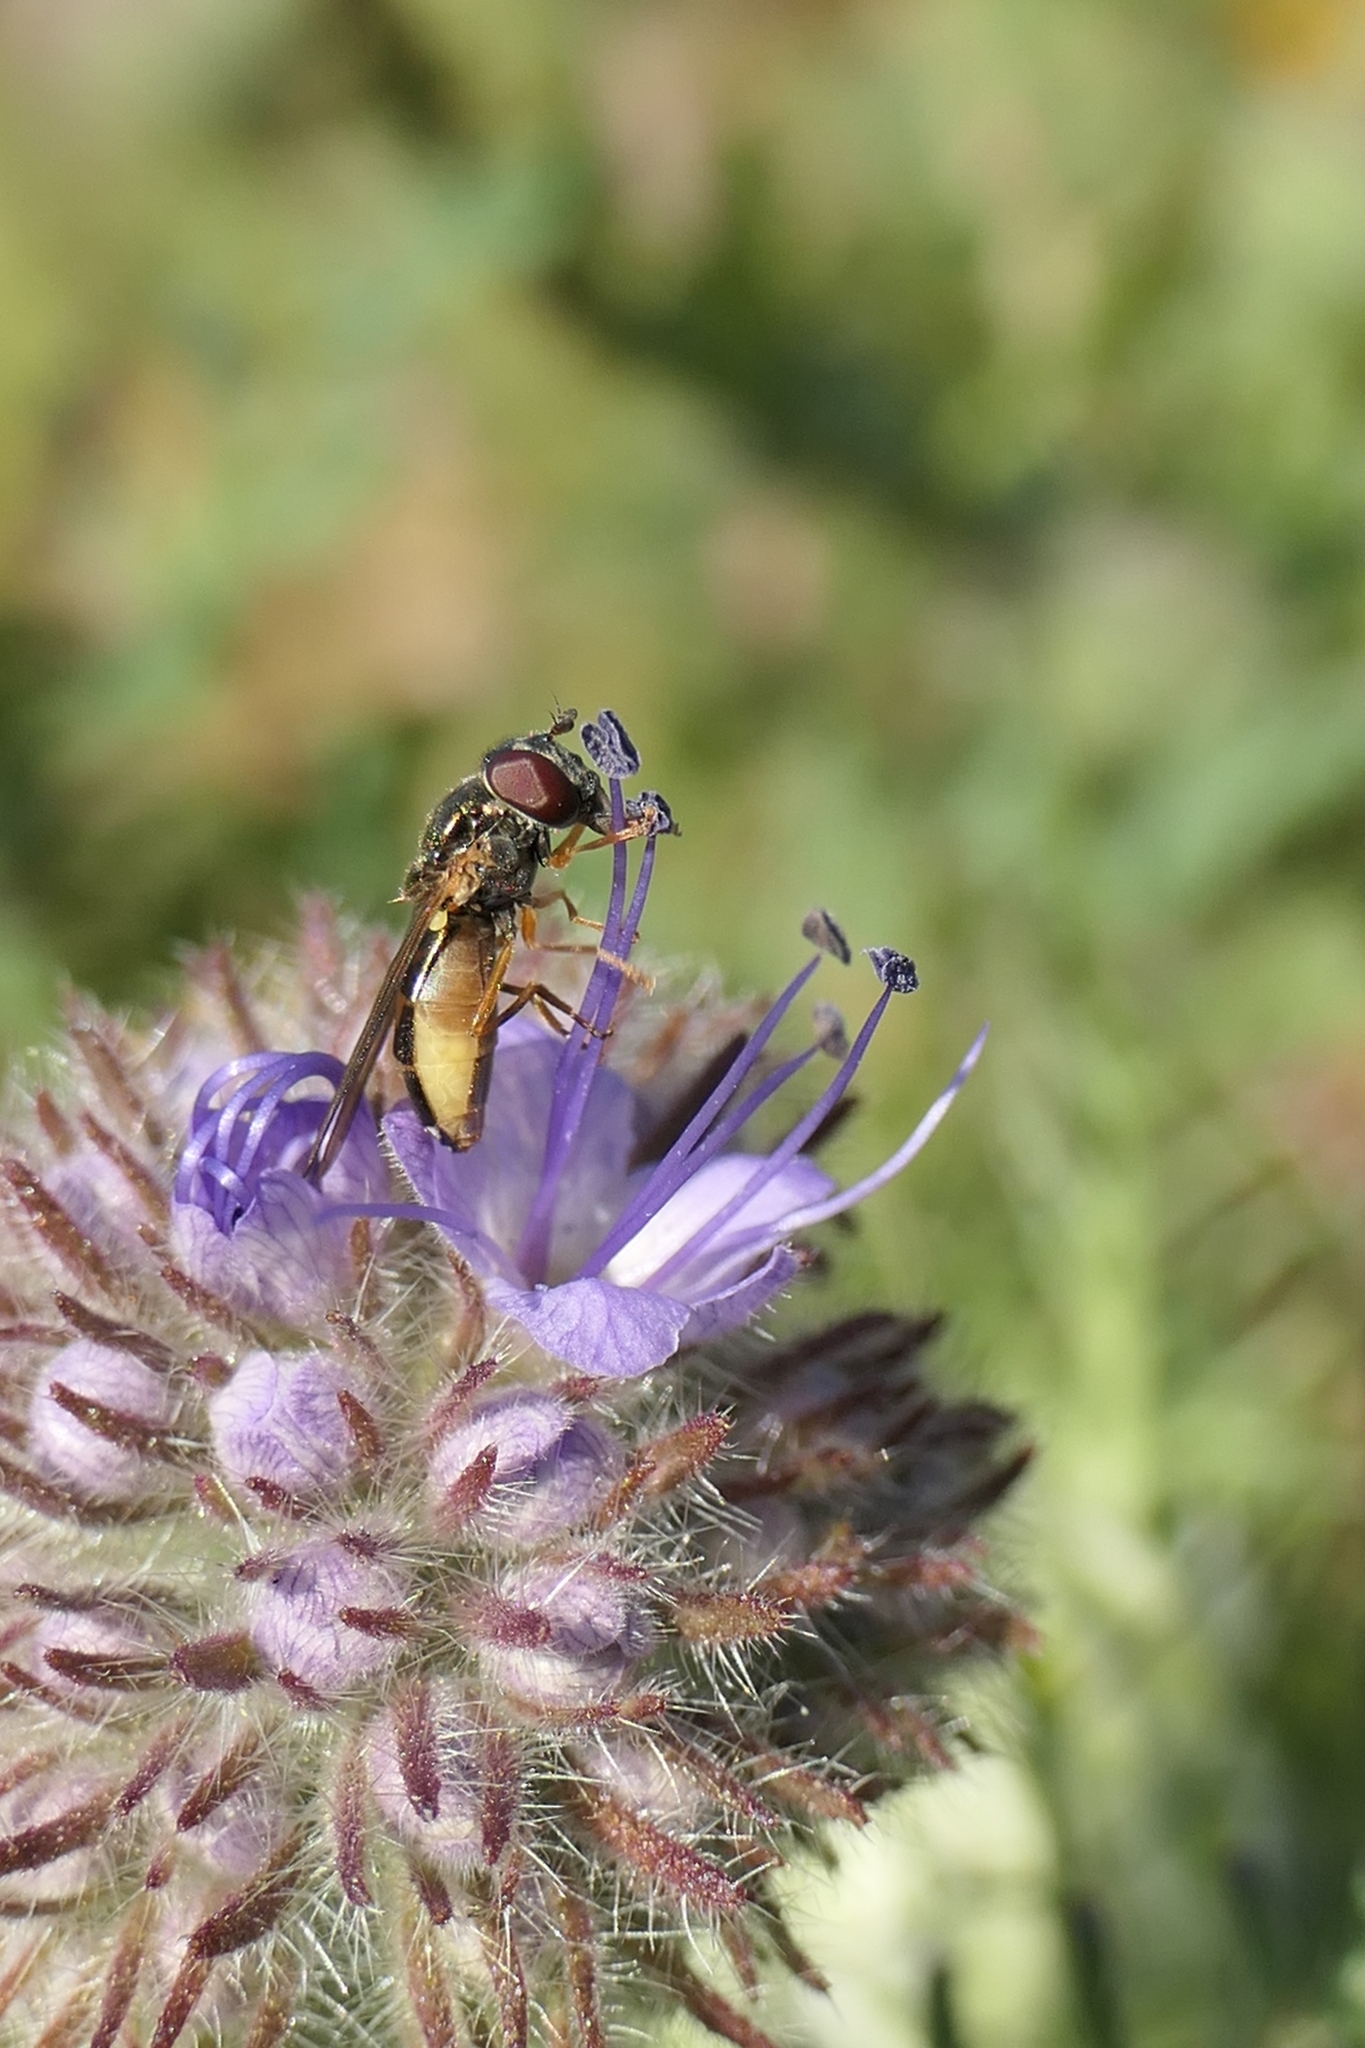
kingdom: Animalia
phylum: Arthropoda
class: Insecta
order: Diptera
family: Syrphidae
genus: Melanostoma
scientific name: Melanostoma fasciatum
